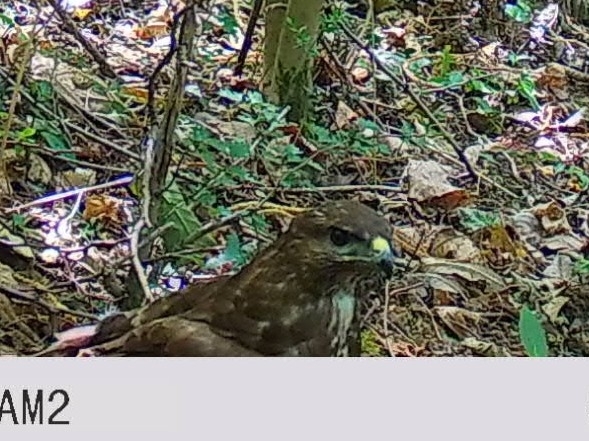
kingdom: Animalia
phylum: Chordata
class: Aves
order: Accipitriformes
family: Accipitridae
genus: Buteo
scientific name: Buteo buteo
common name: Common buzzard
